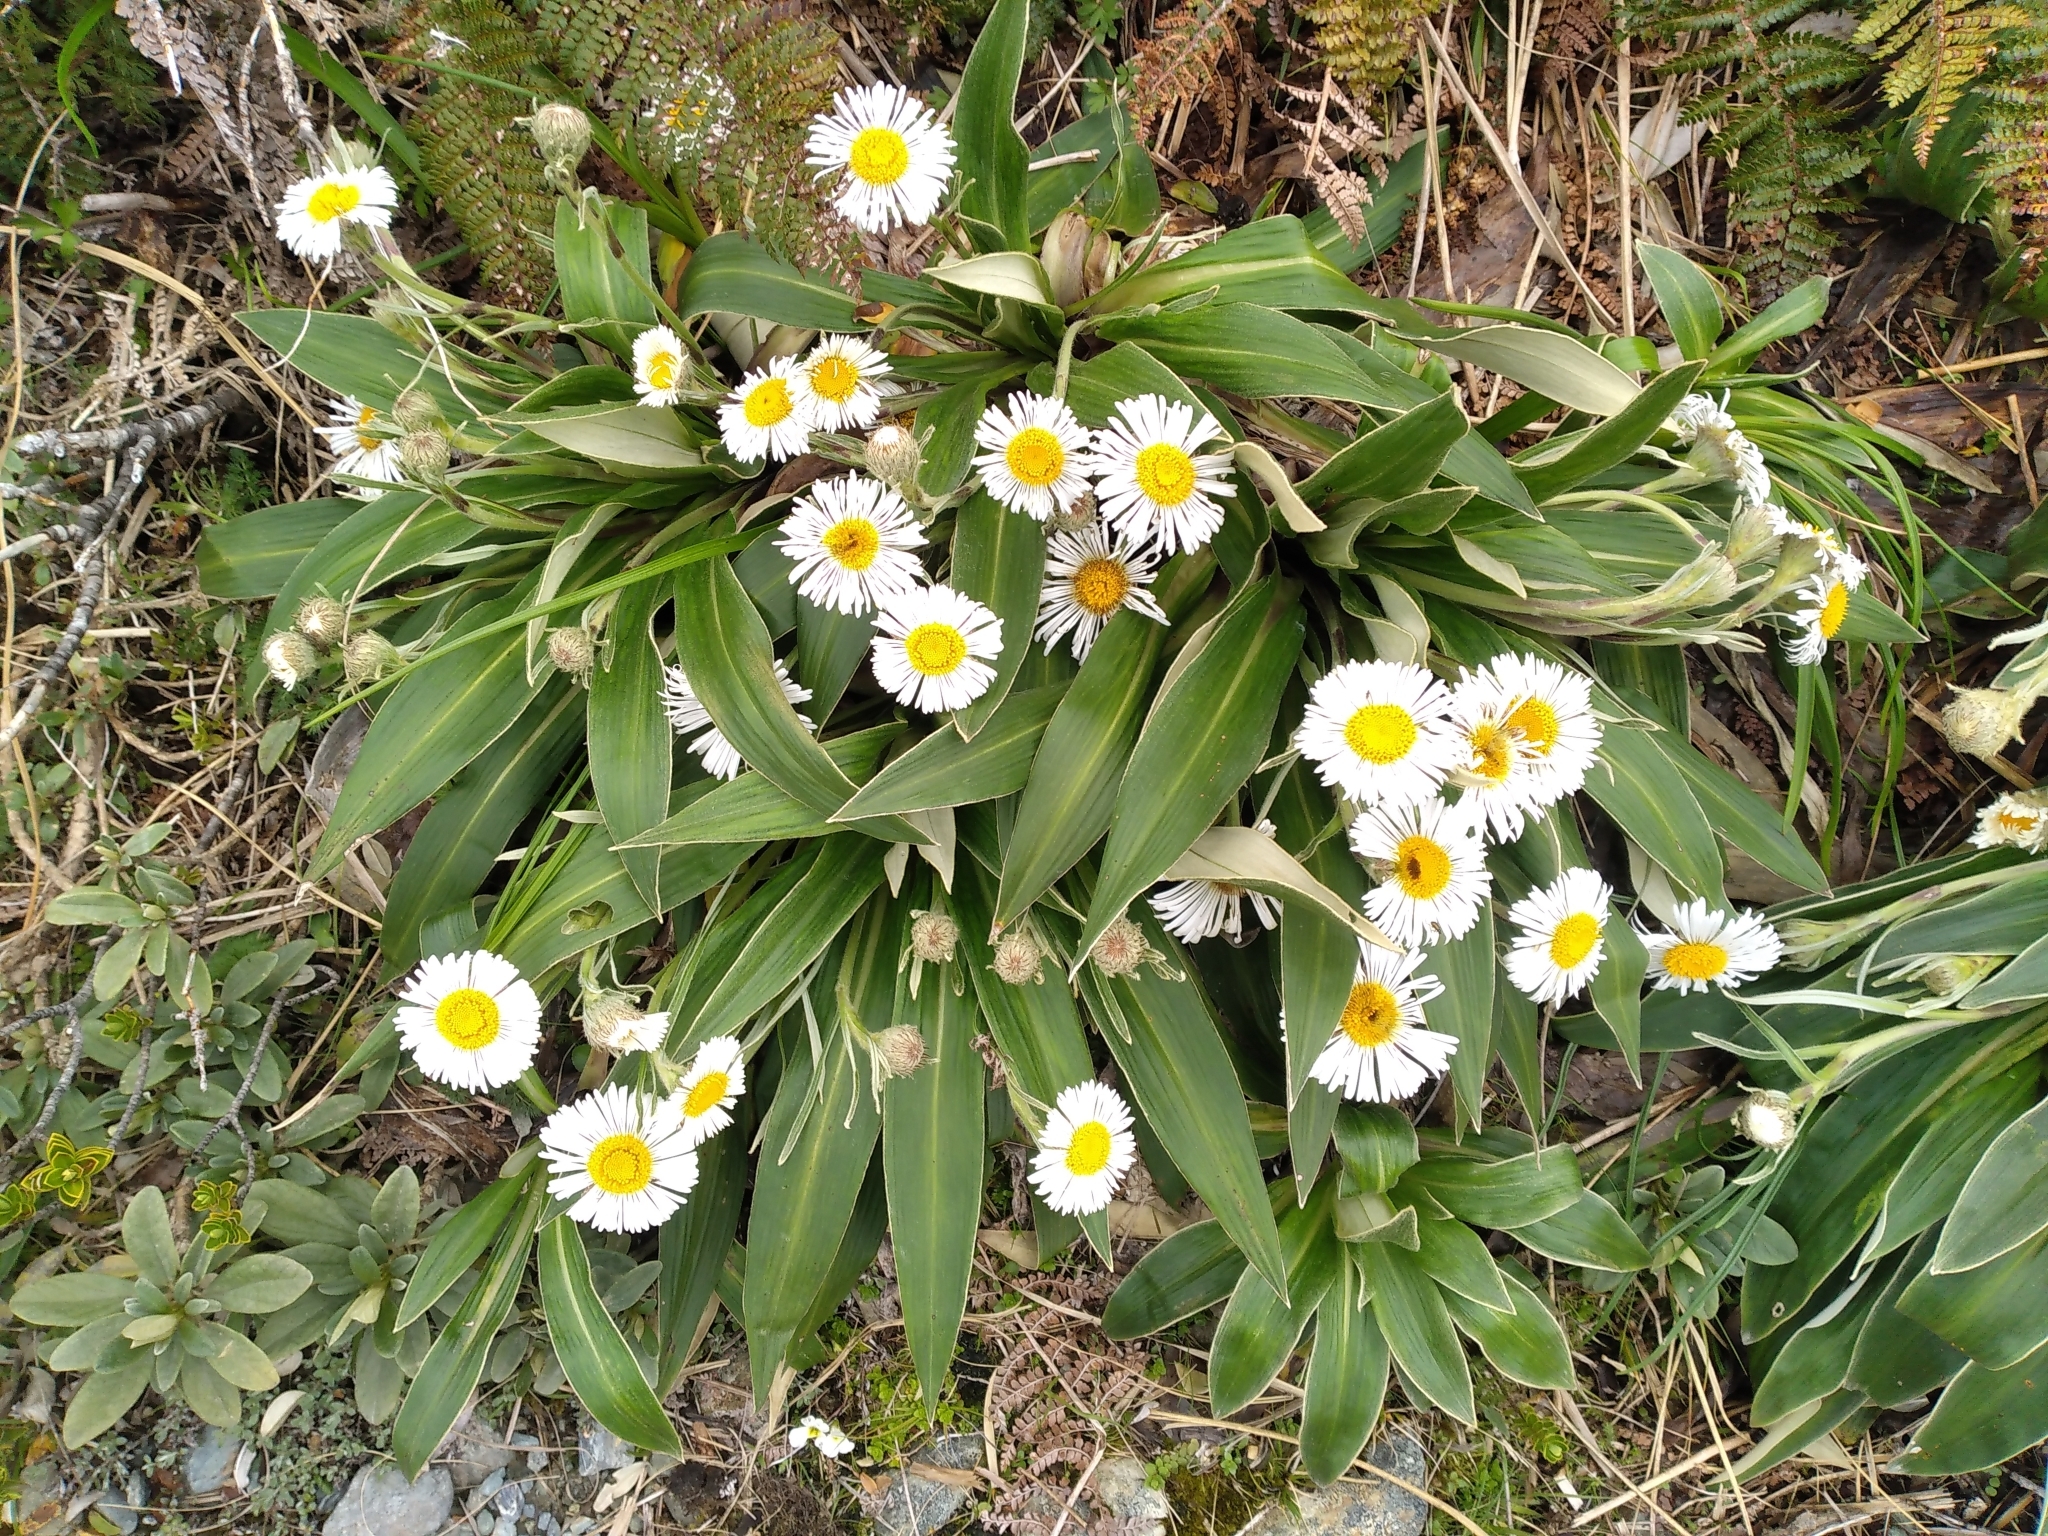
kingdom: Plantae
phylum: Tracheophyta
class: Magnoliopsida
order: Asterales
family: Asteraceae
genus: Celmisia
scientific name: Celmisia verbascifolia
